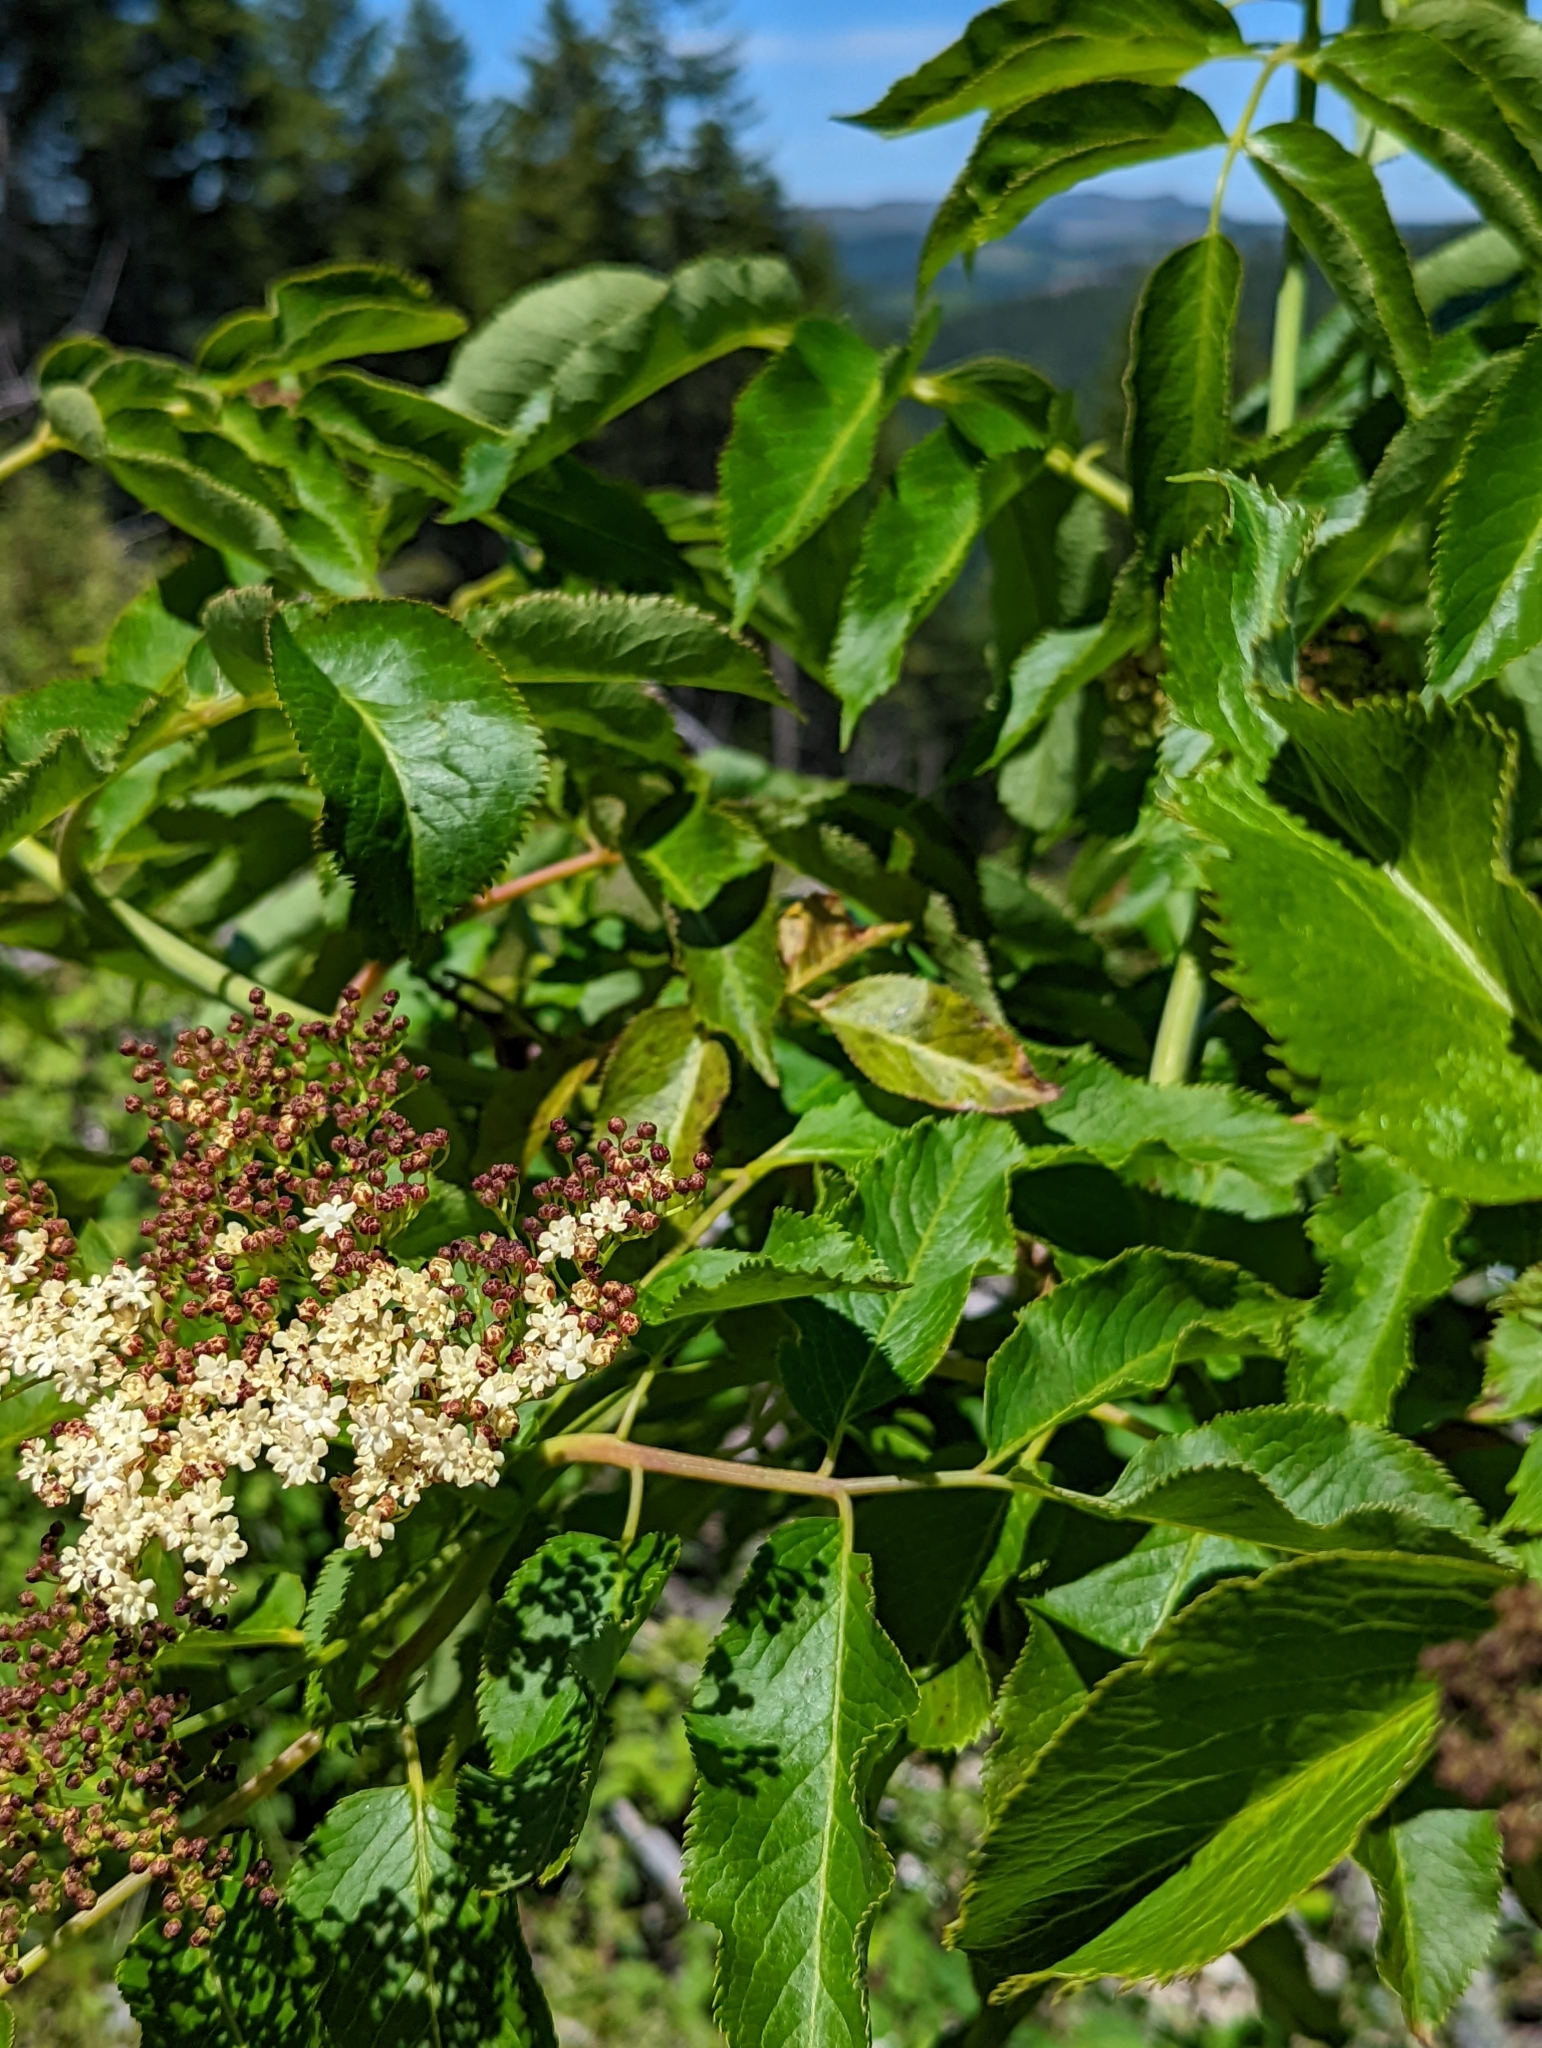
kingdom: Plantae
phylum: Tracheophyta
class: Magnoliopsida
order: Dipsacales
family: Viburnaceae
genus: Sambucus
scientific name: Sambucus cerulea
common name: Blue elder
